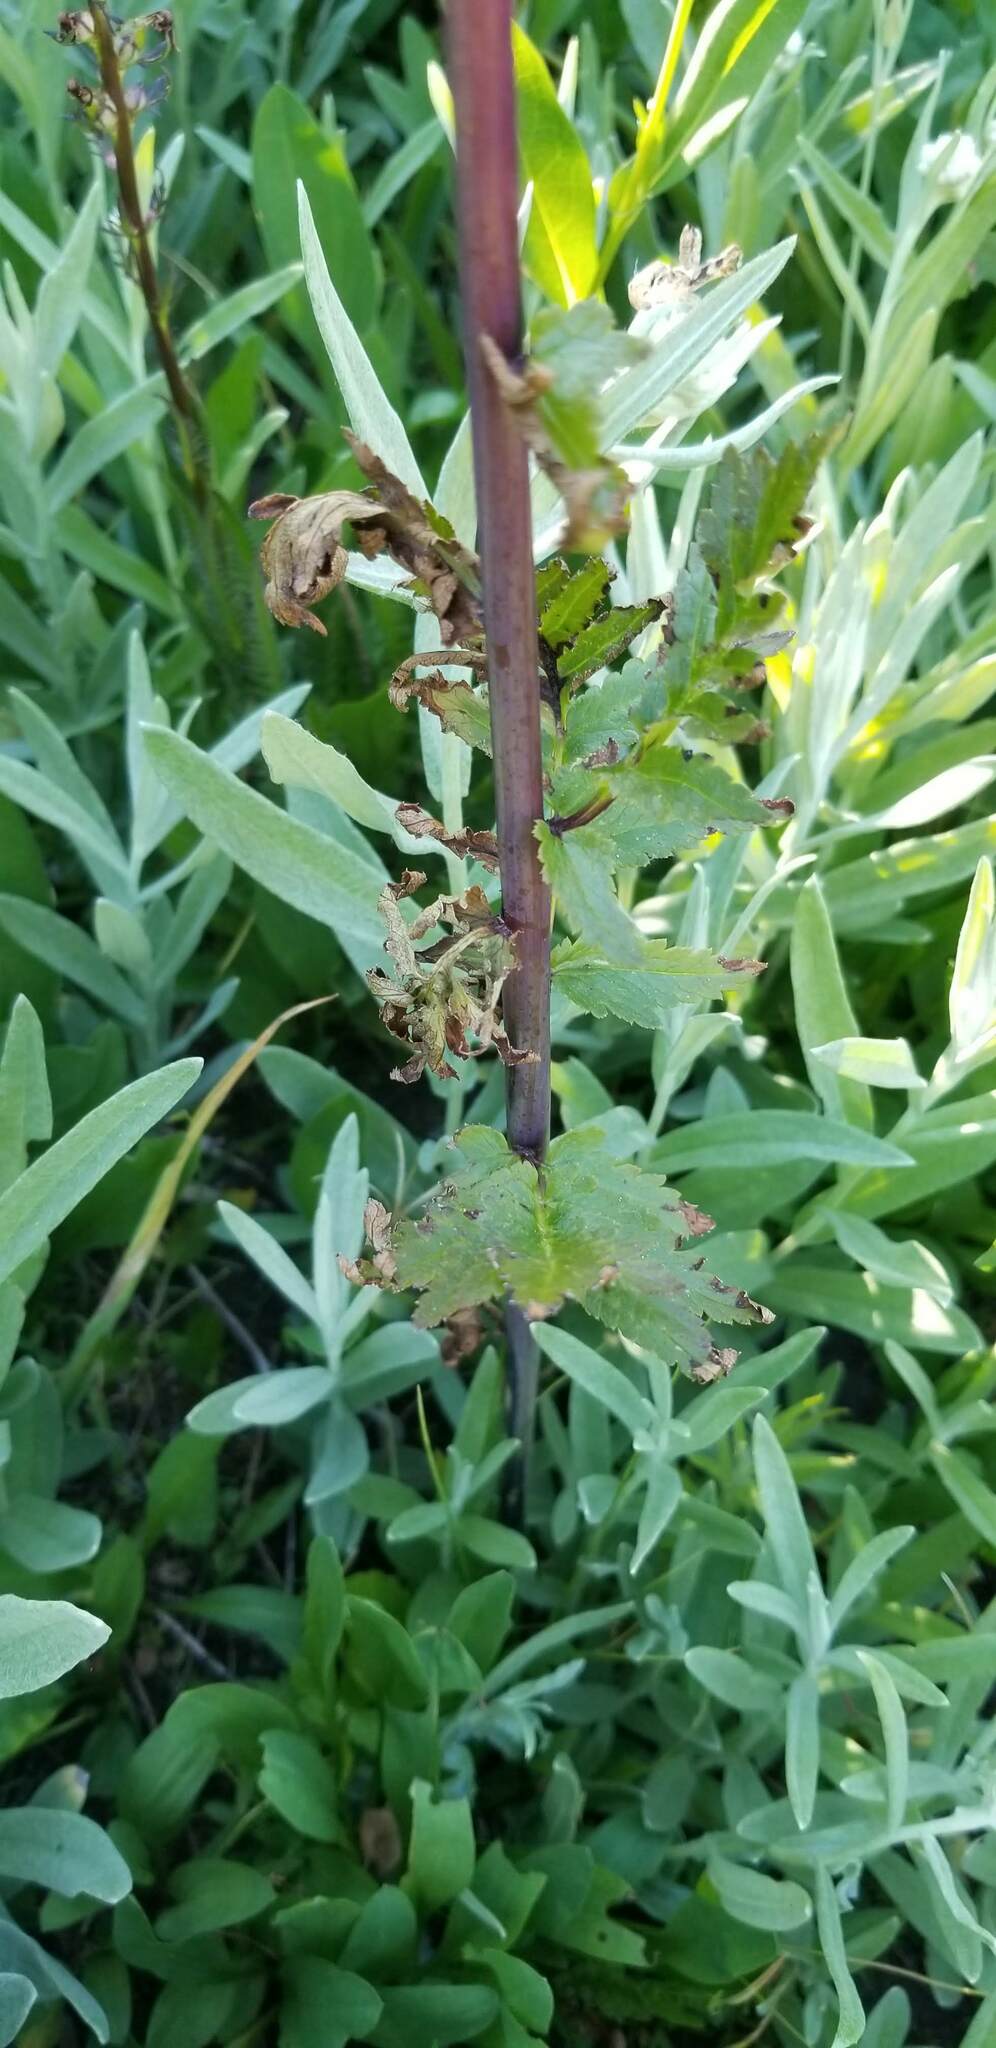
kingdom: Plantae
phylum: Tracheophyta
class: Magnoliopsida
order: Lamiales
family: Orobanchaceae
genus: Pedicularis
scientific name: Pedicularis bracteosa
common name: Bracted lousewort
